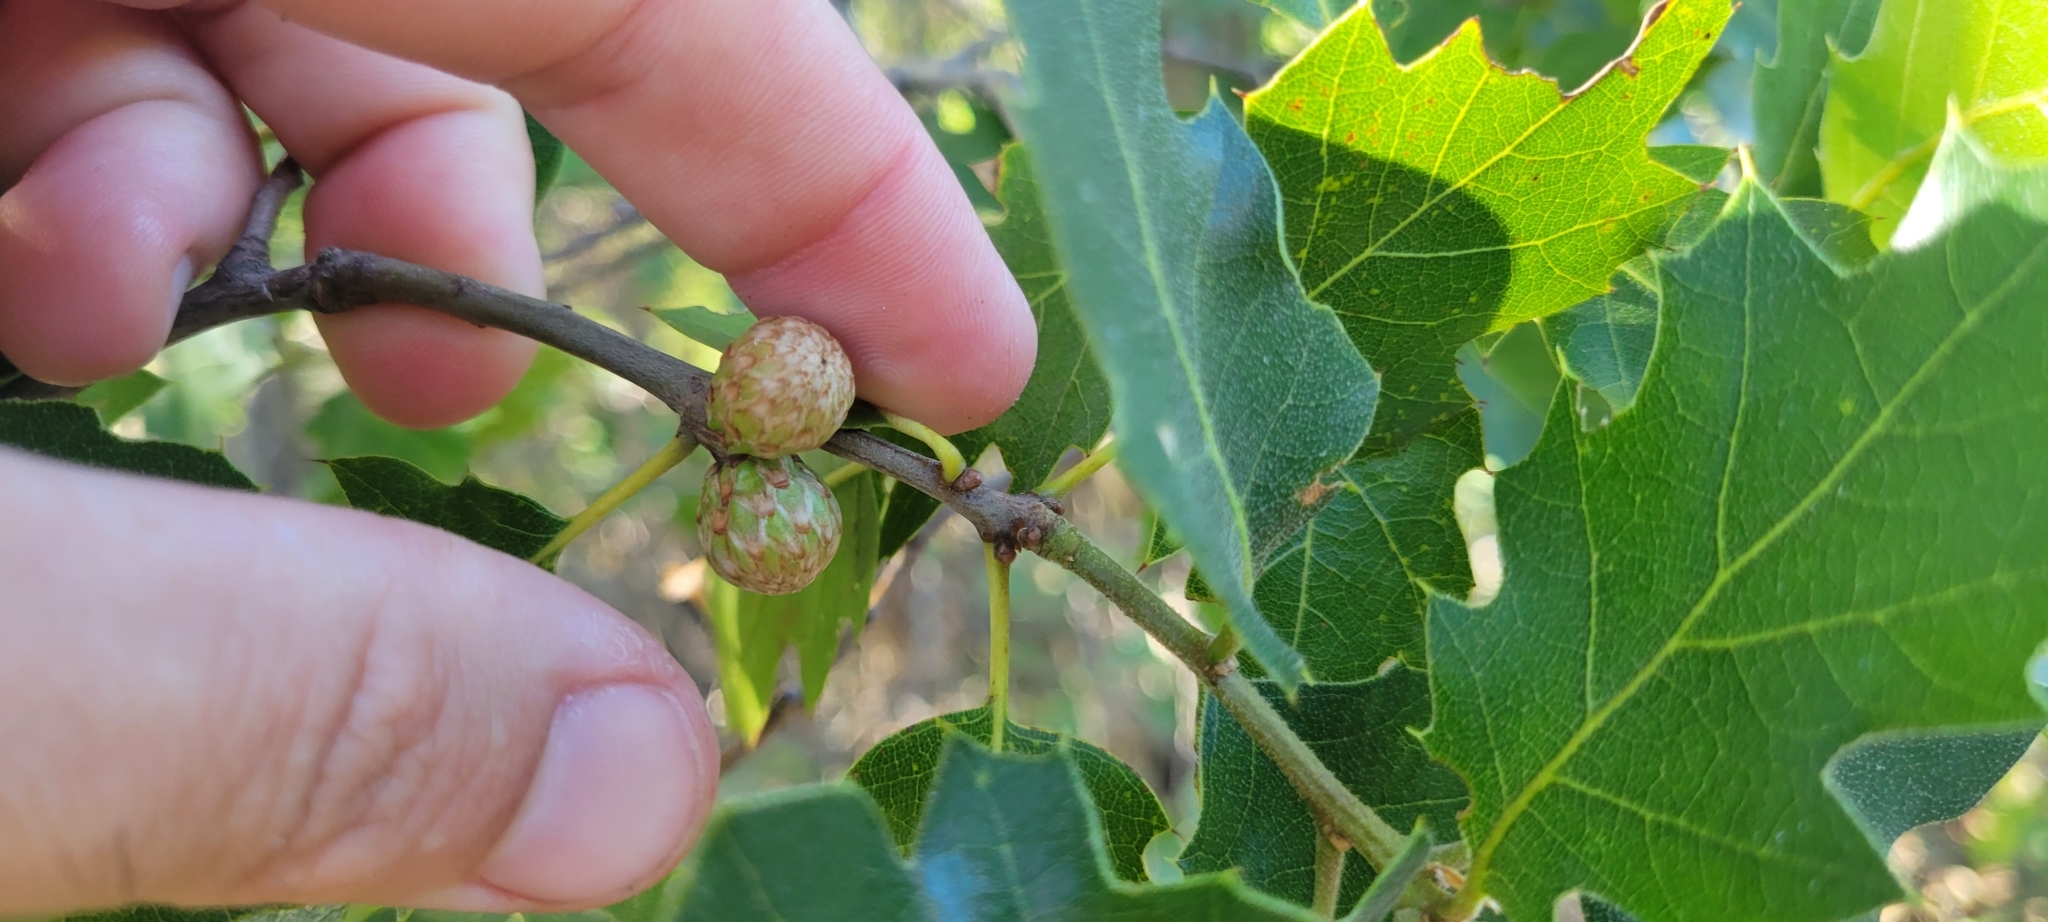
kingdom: Plantae
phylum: Tracheophyta
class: Magnoliopsida
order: Fagales
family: Fagaceae
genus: Quercus
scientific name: Quercus morehus
